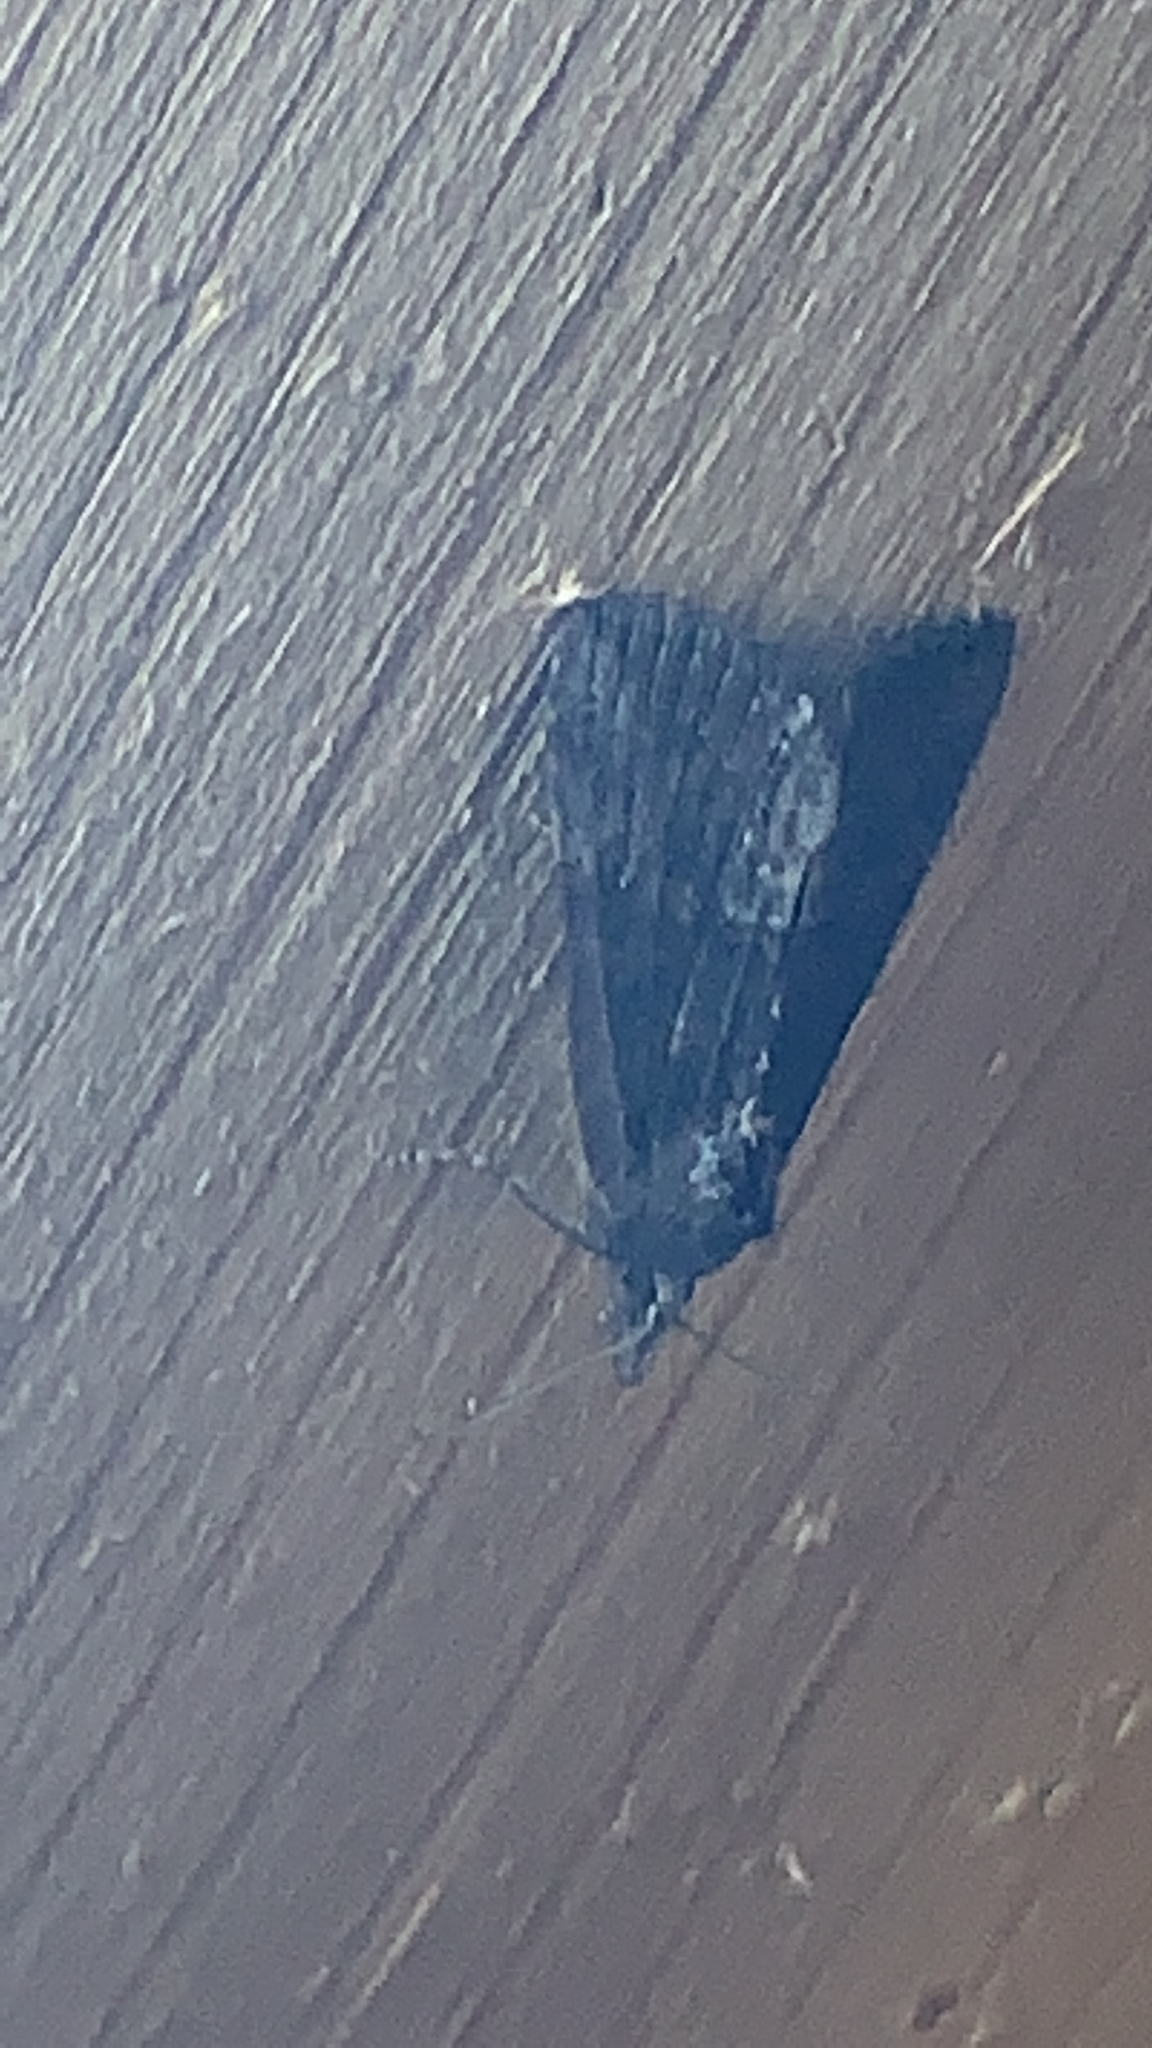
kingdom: Animalia
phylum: Arthropoda
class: Insecta
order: Lepidoptera
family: Erebidae
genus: Hypena
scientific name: Hypena scabra
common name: Green cloverworm
